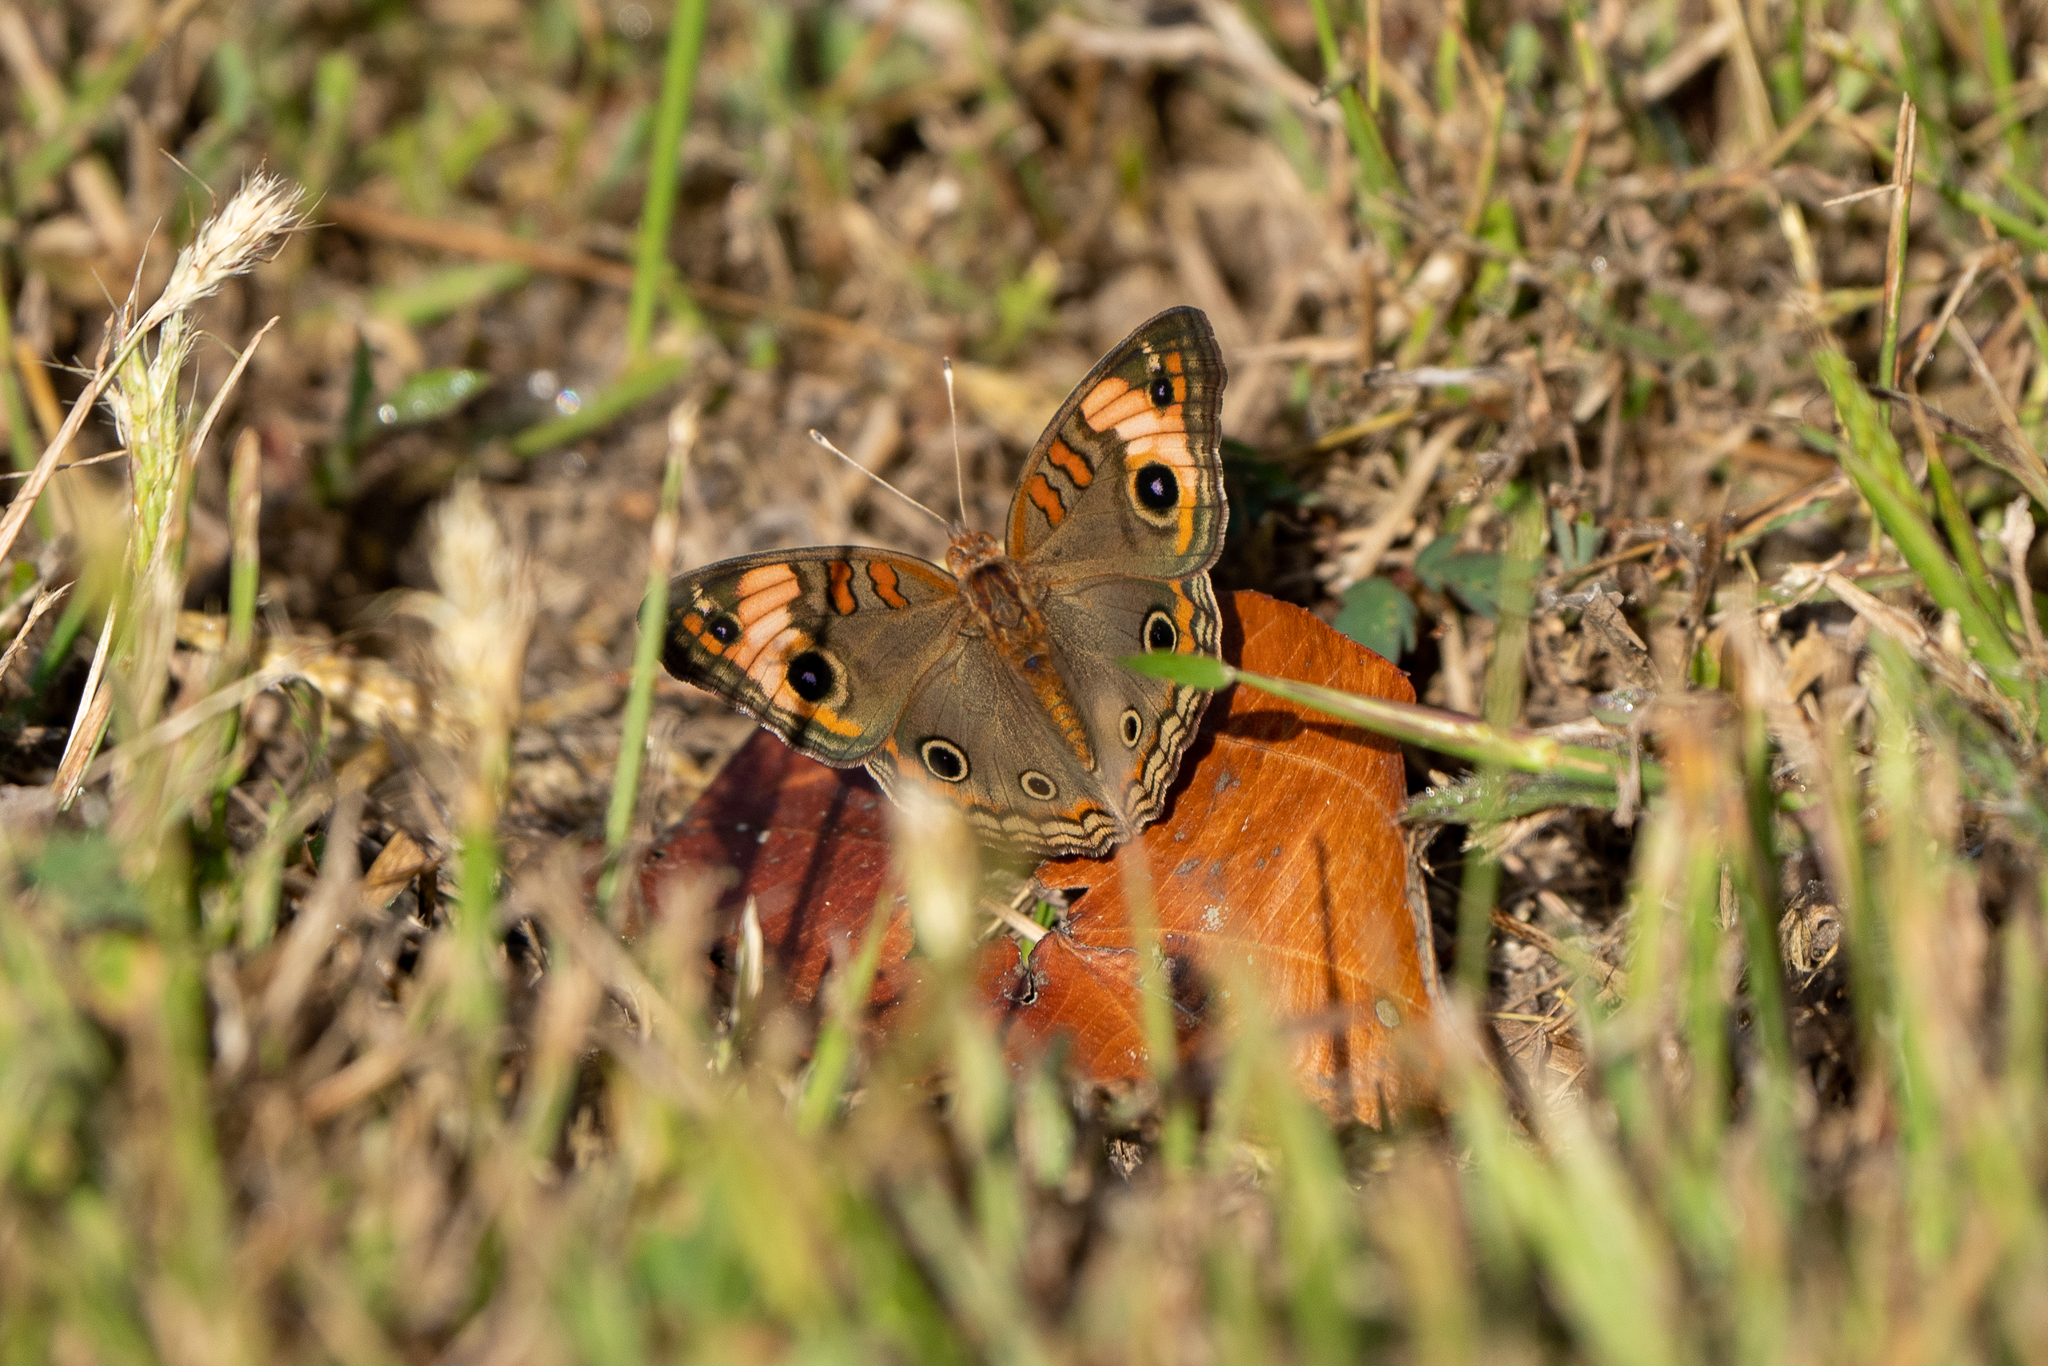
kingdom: Animalia
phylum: Arthropoda
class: Insecta
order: Lepidoptera
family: Nymphalidae
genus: Junonia
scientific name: Junonia lavinia
